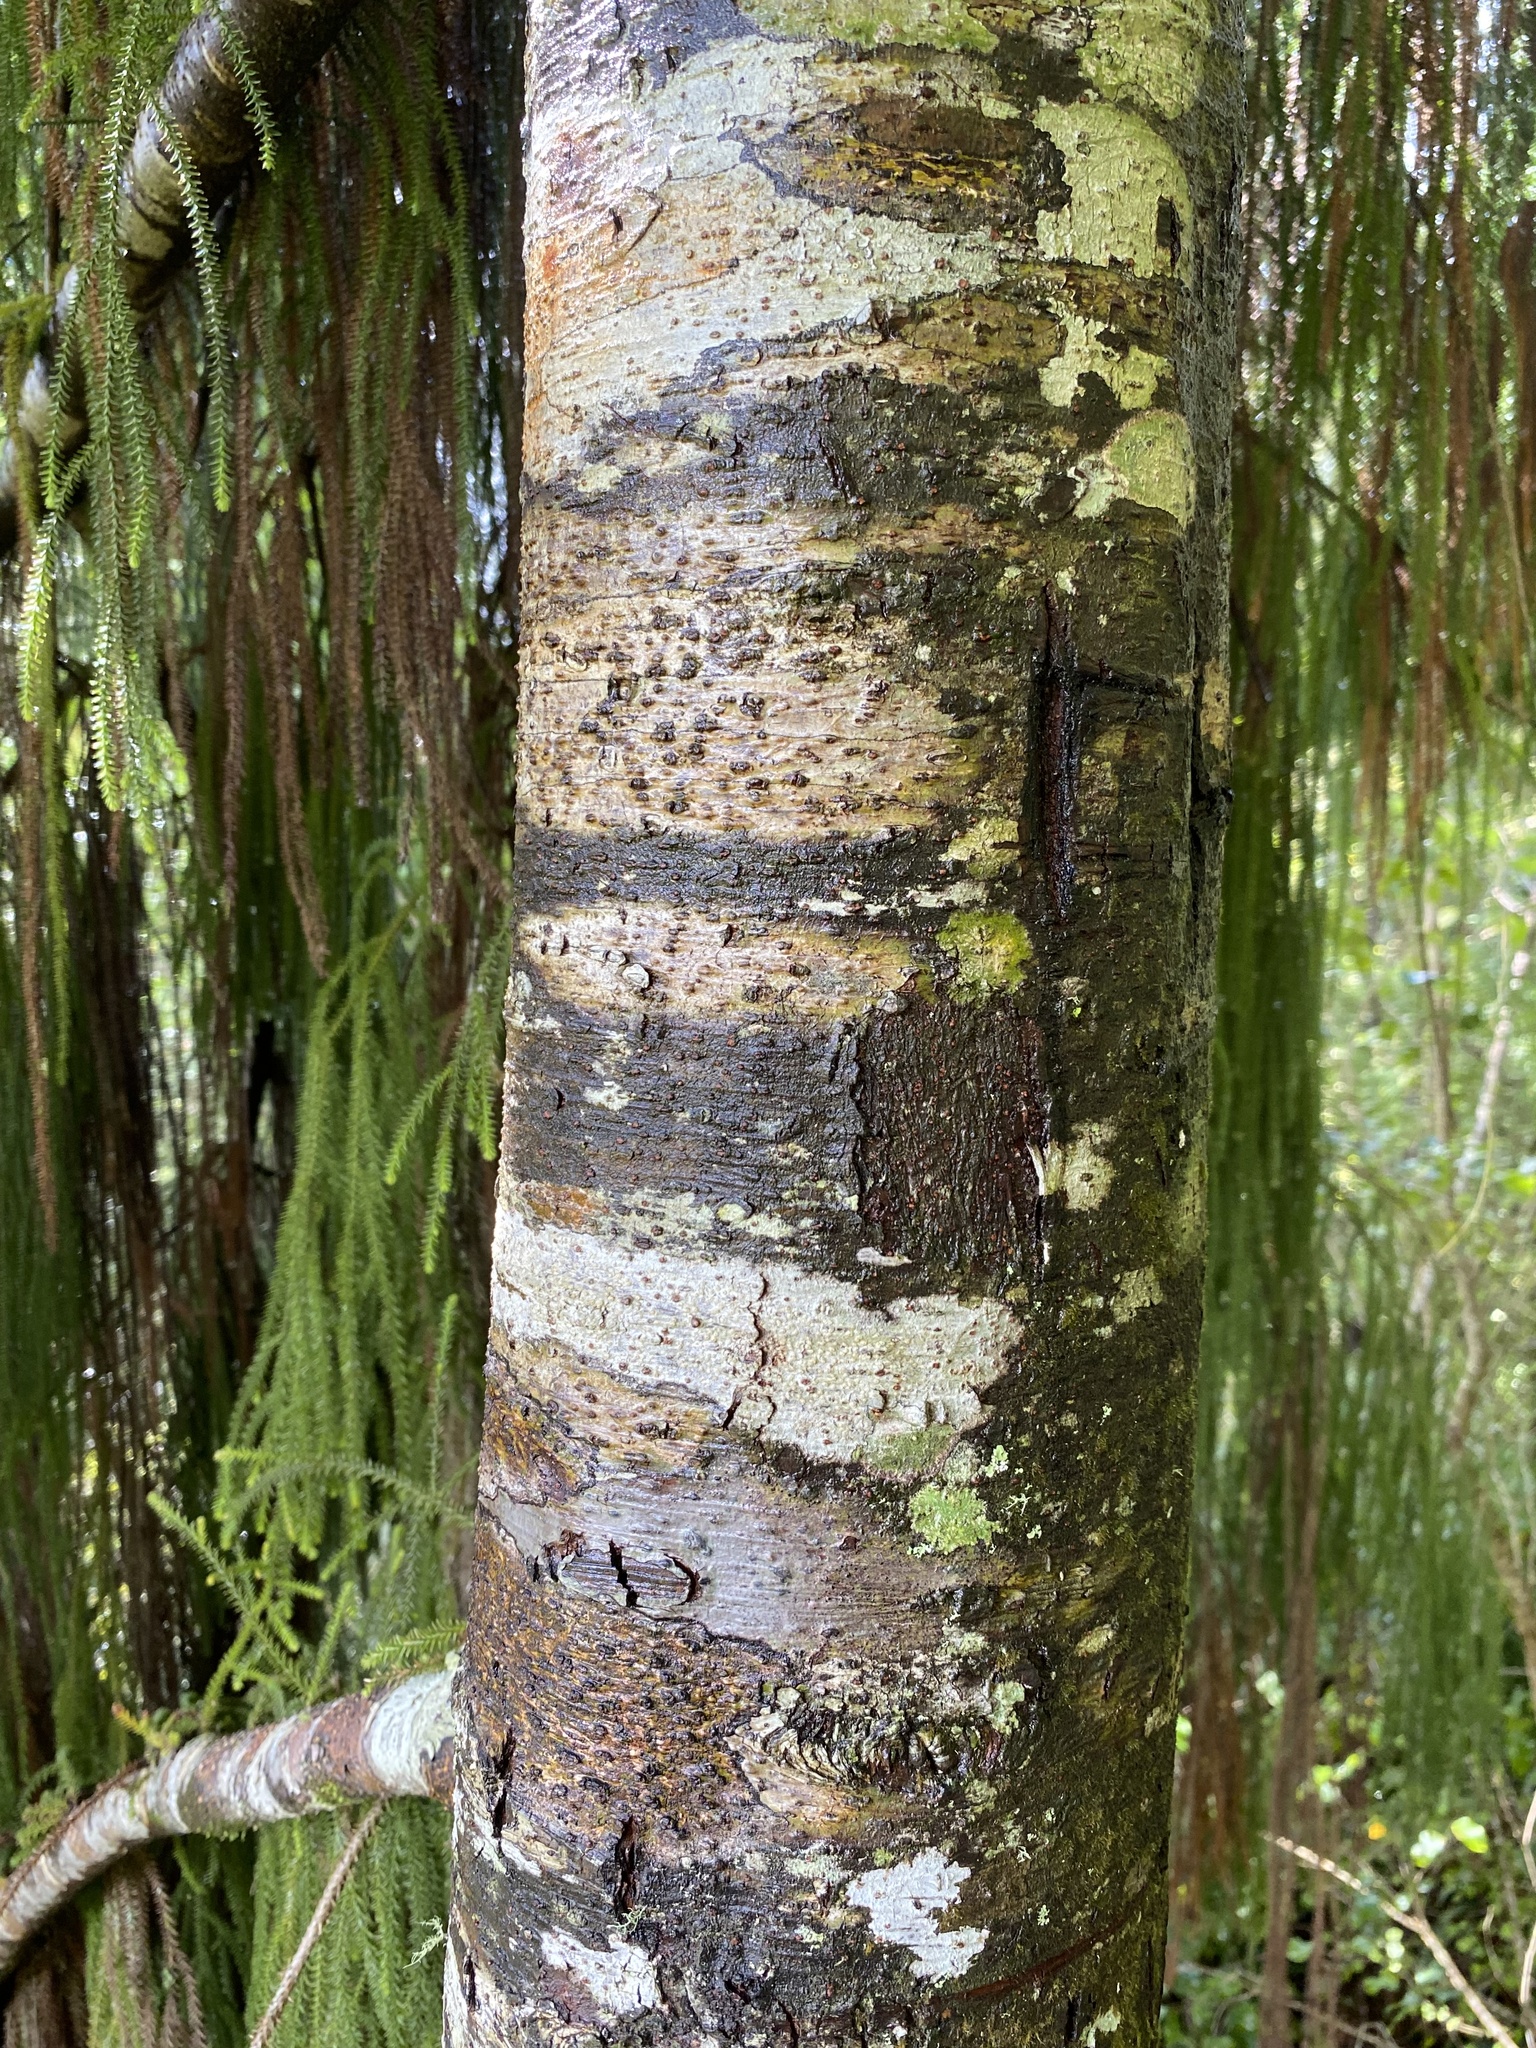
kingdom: Plantae
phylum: Tracheophyta
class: Pinopsida
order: Pinales
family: Podocarpaceae
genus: Dacrydium
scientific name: Dacrydium cupressinum
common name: Red pine
